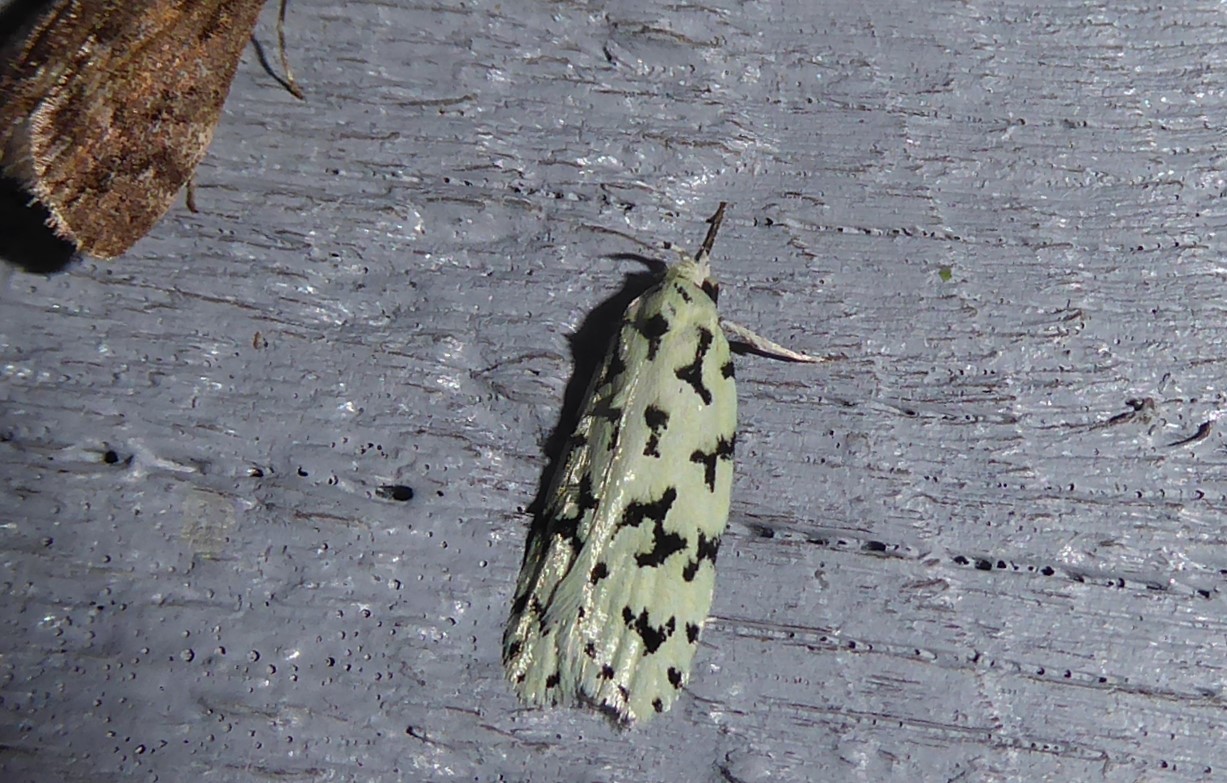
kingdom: Animalia
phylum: Arthropoda
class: Insecta
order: Lepidoptera
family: Oecophoridae
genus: Izatha
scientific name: Izatha huttoni
